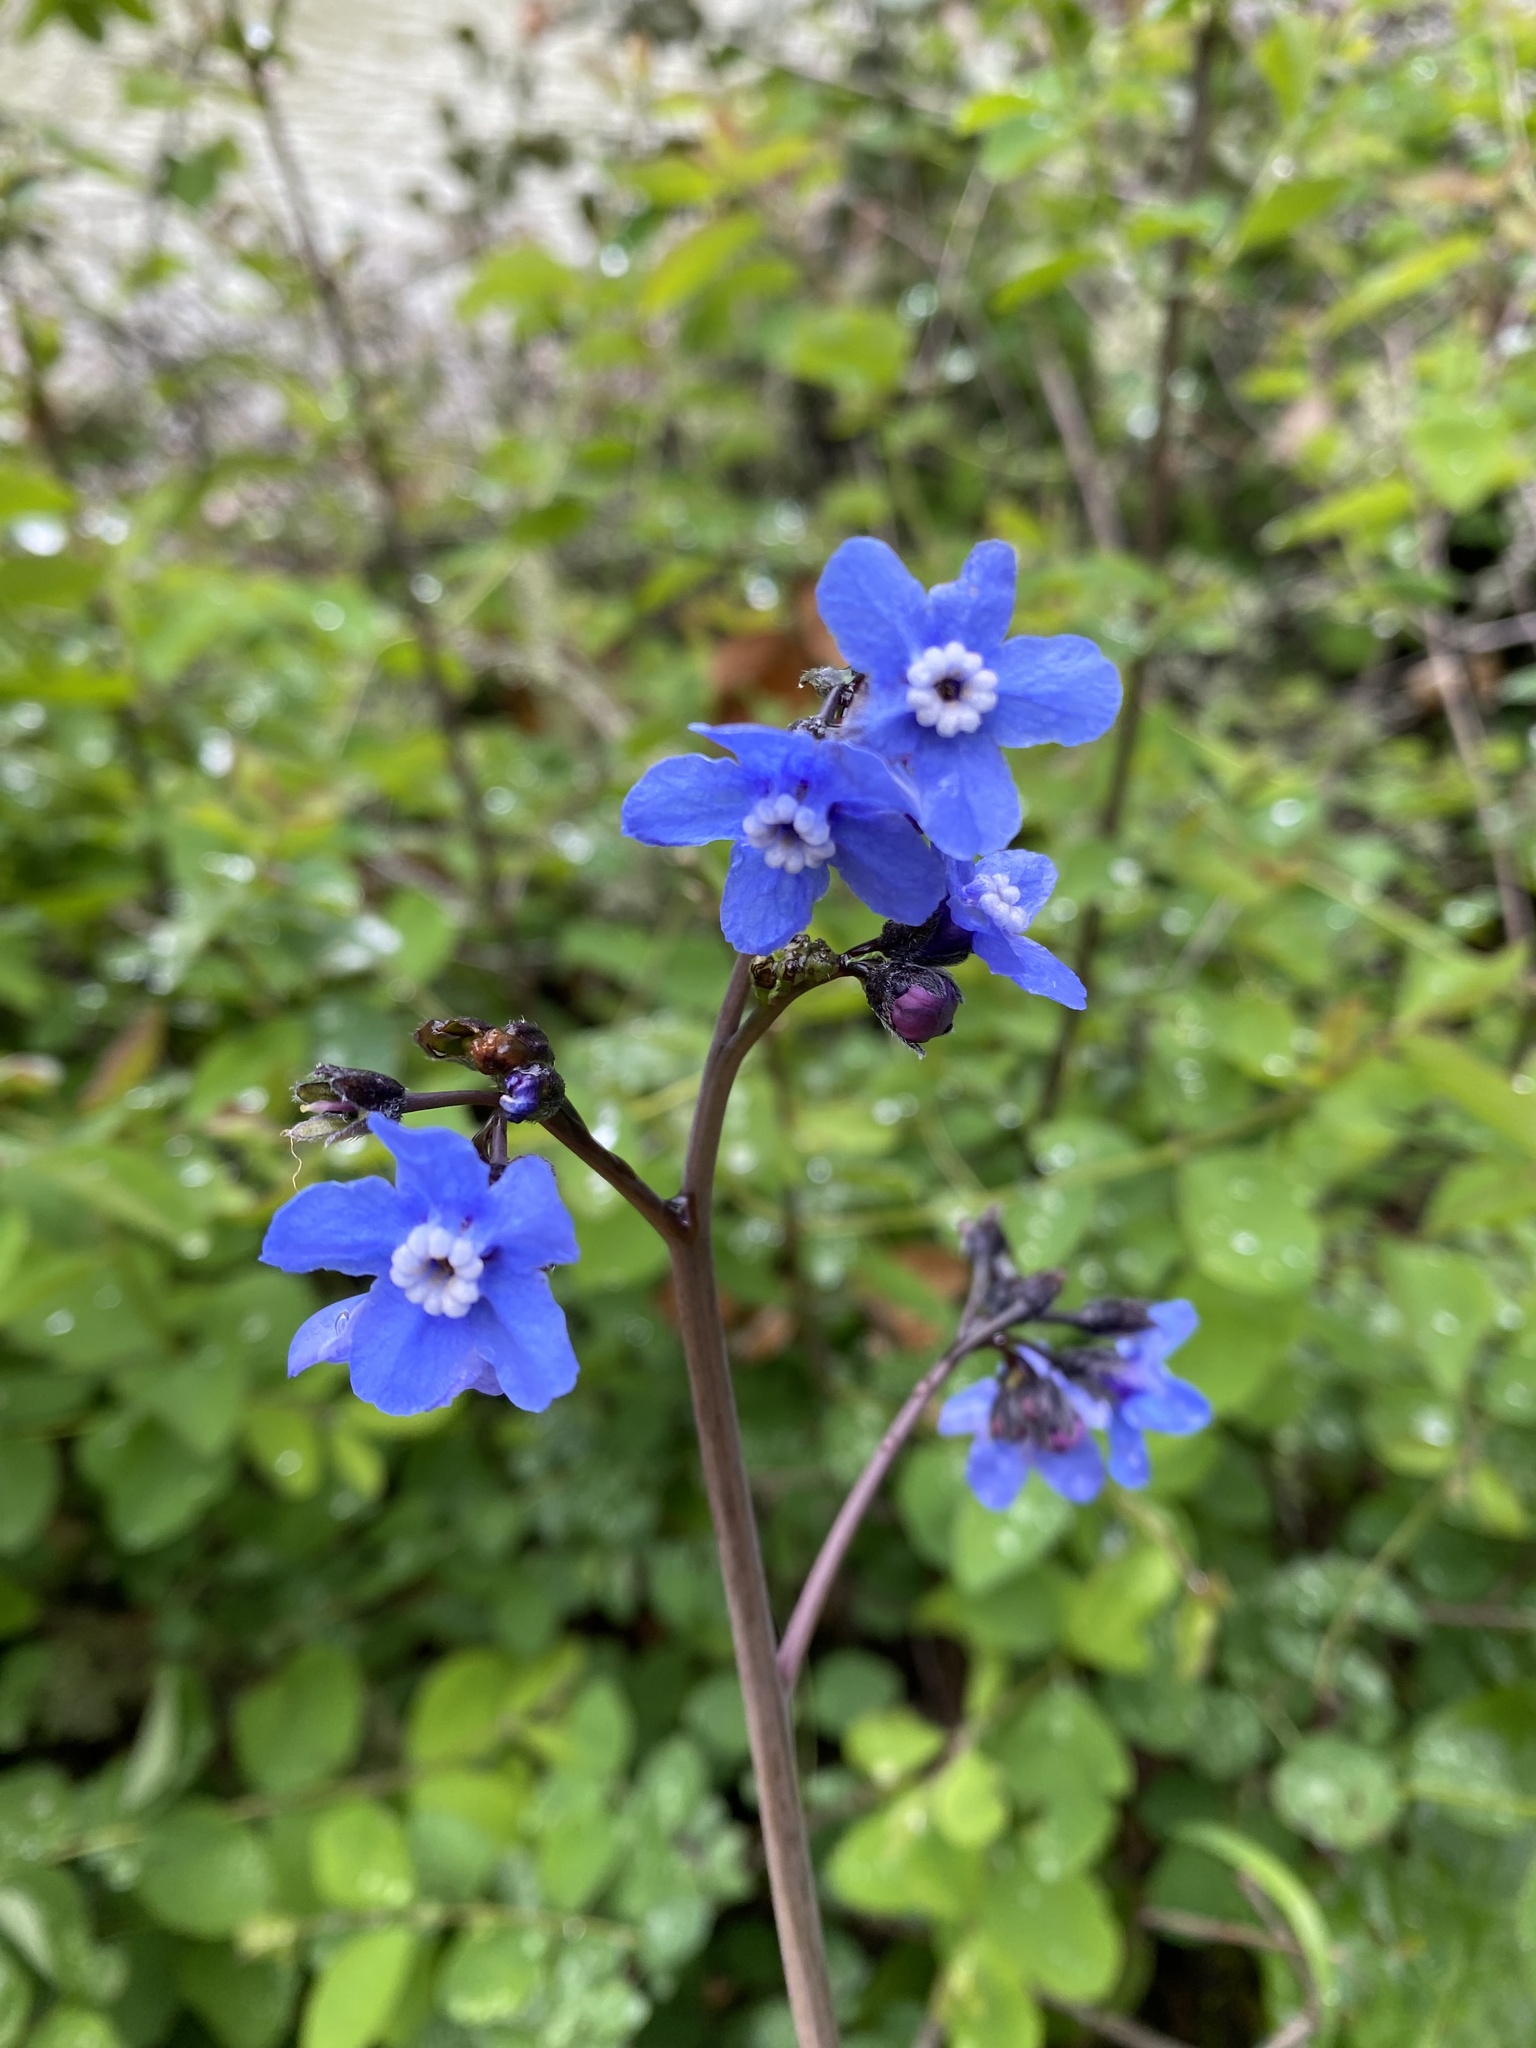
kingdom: Plantae
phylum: Tracheophyta
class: Magnoliopsida
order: Boraginales
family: Boraginaceae
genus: Adelinia
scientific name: Adelinia grande
